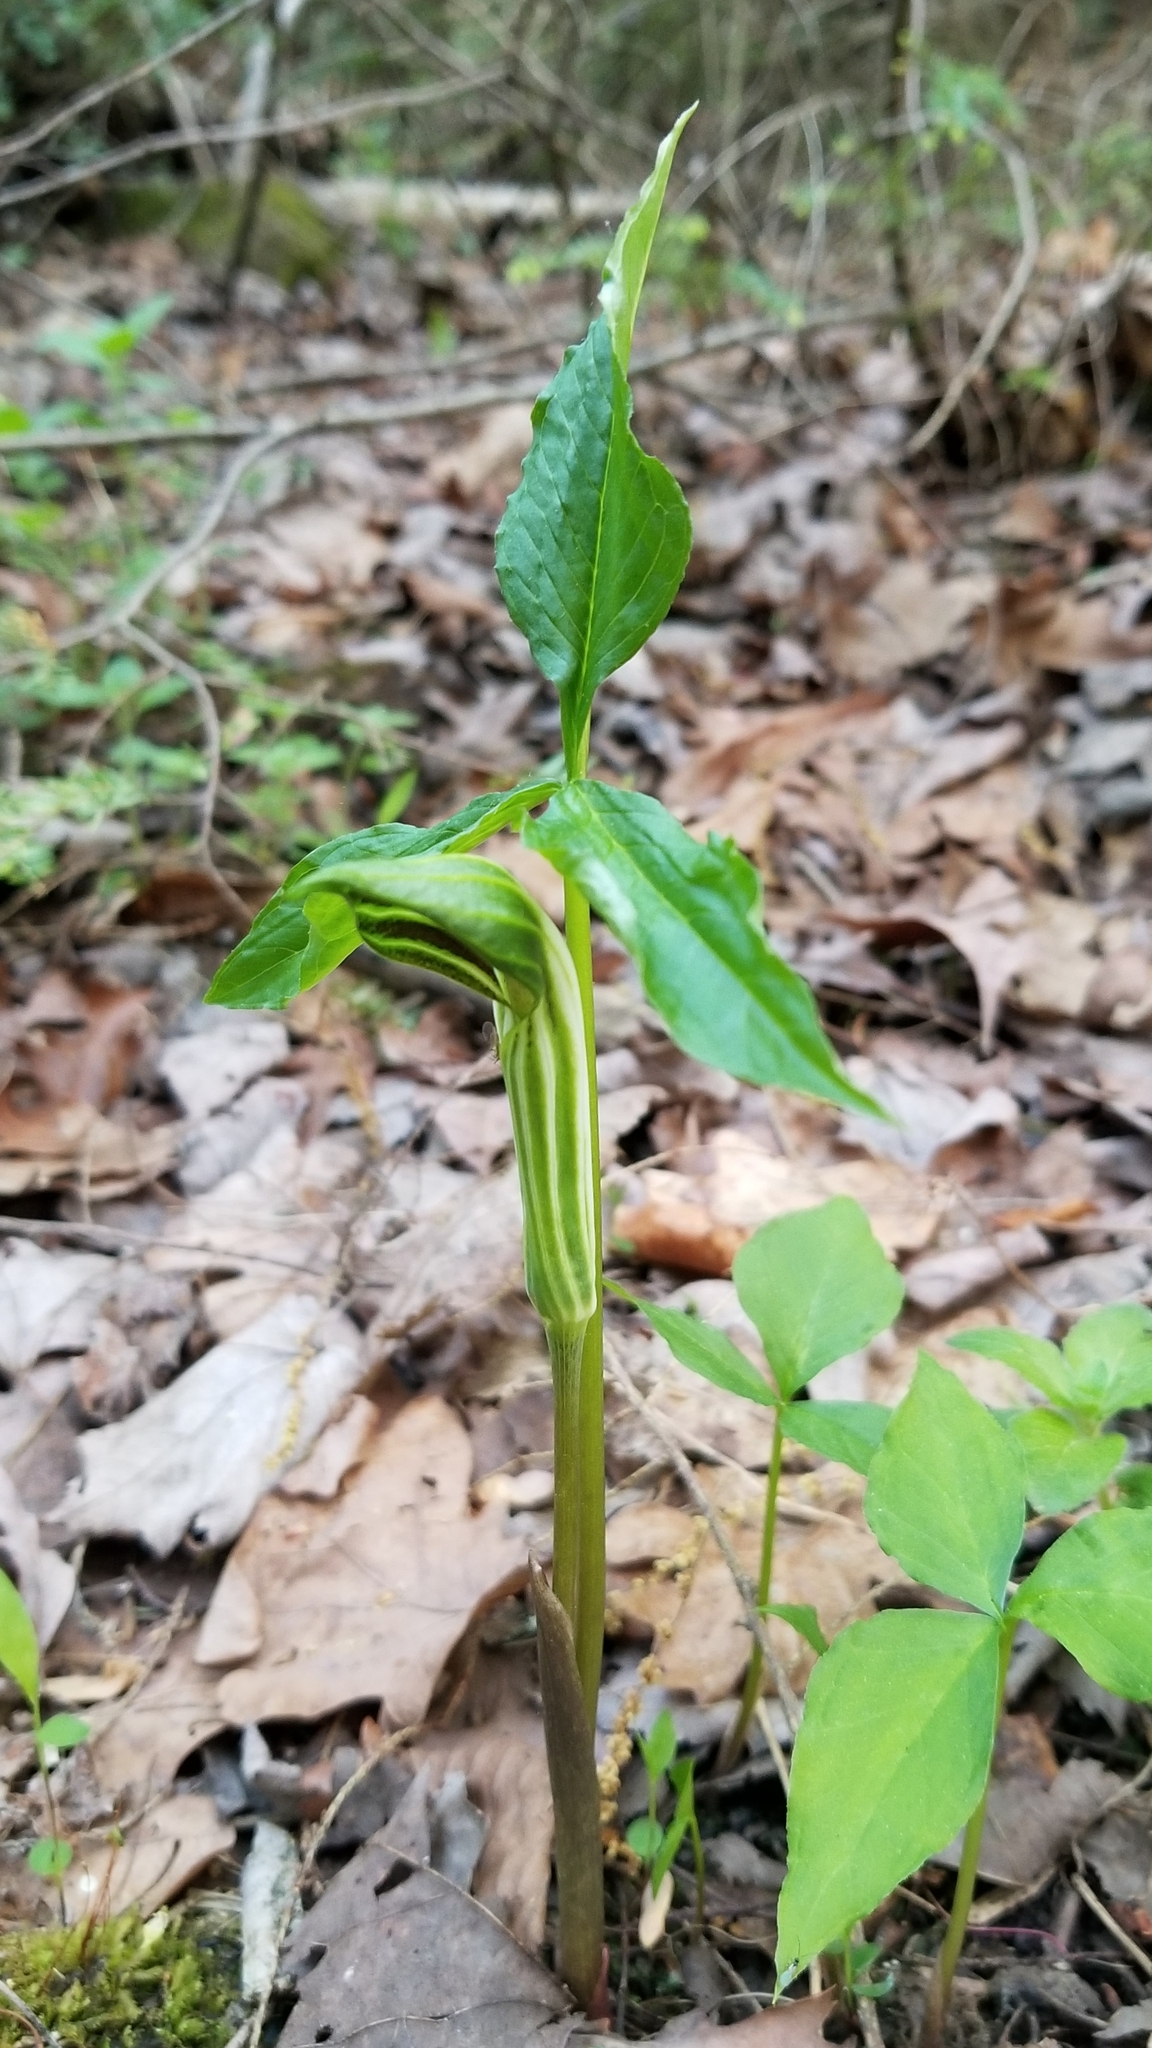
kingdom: Plantae
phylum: Tracheophyta
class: Liliopsida
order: Alismatales
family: Araceae
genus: Arisaema
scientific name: Arisaema stewardsonii
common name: Swamp jack-in-the-pulpit
